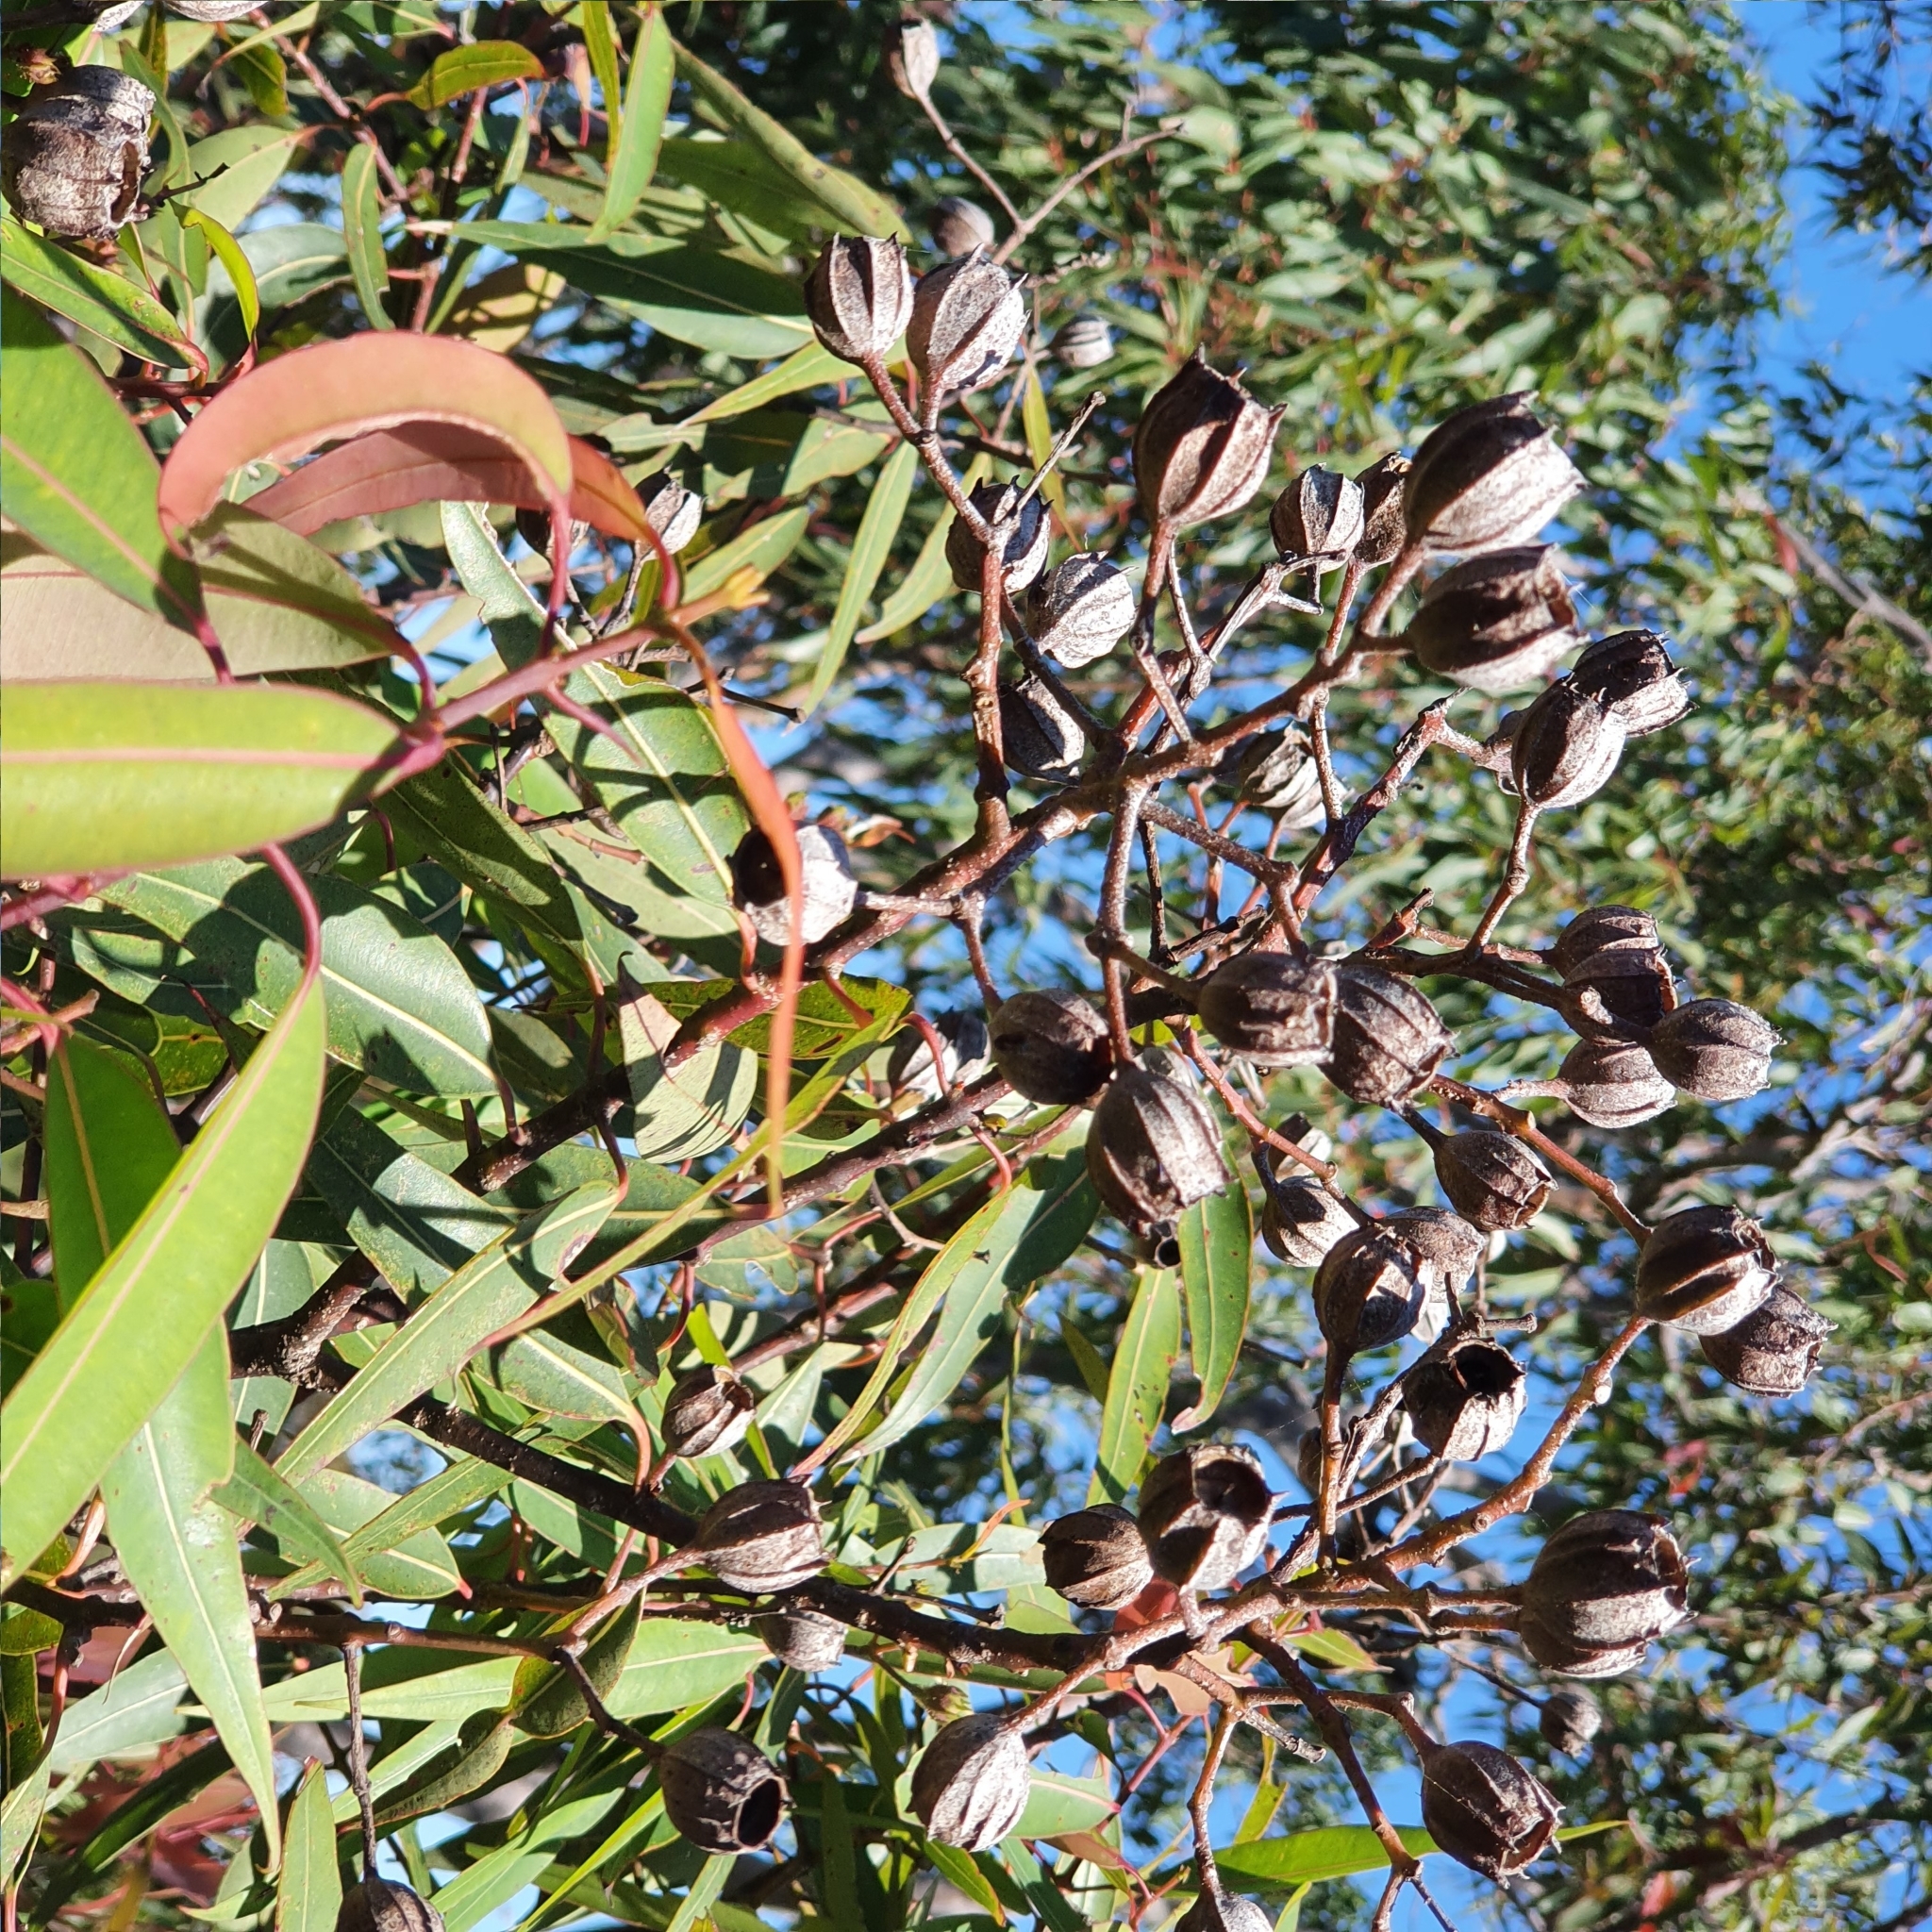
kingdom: Plantae
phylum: Tracheophyta
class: Magnoliopsida
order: Myrtales
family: Myrtaceae
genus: Angophora
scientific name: Angophora costata
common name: Gum myrtle
